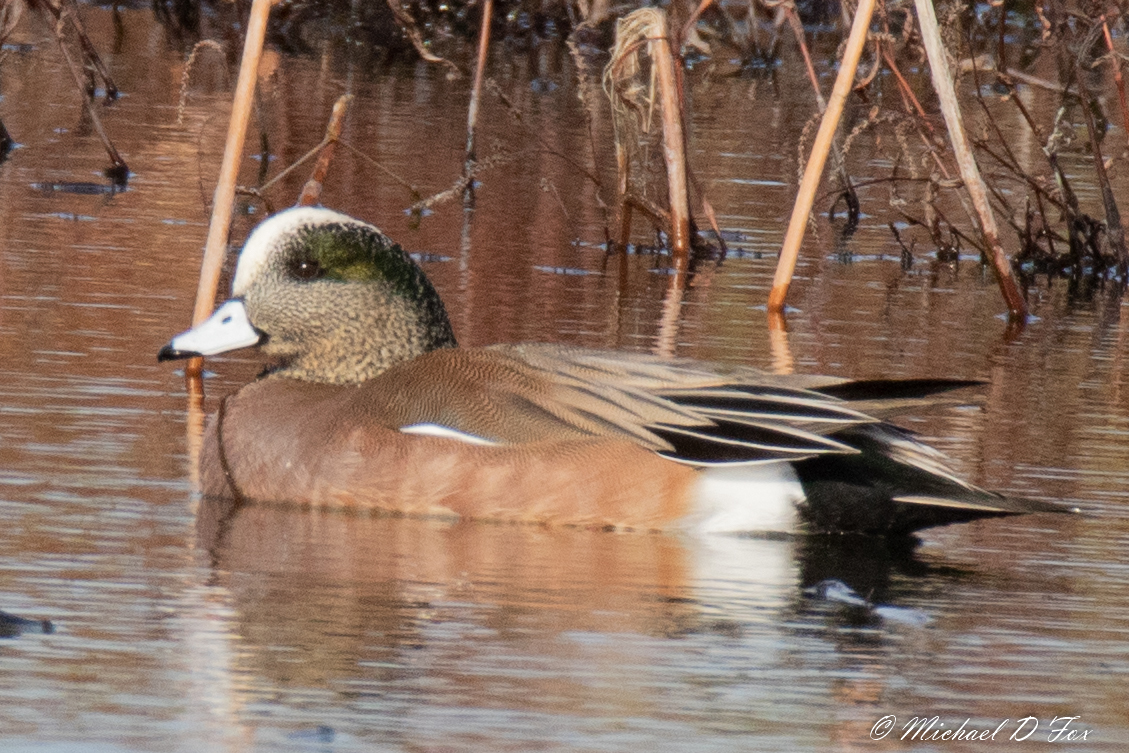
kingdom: Animalia
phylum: Chordata
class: Aves
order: Anseriformes
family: Anatidae
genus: Mareca
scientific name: Mareca americana
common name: American wigeon
